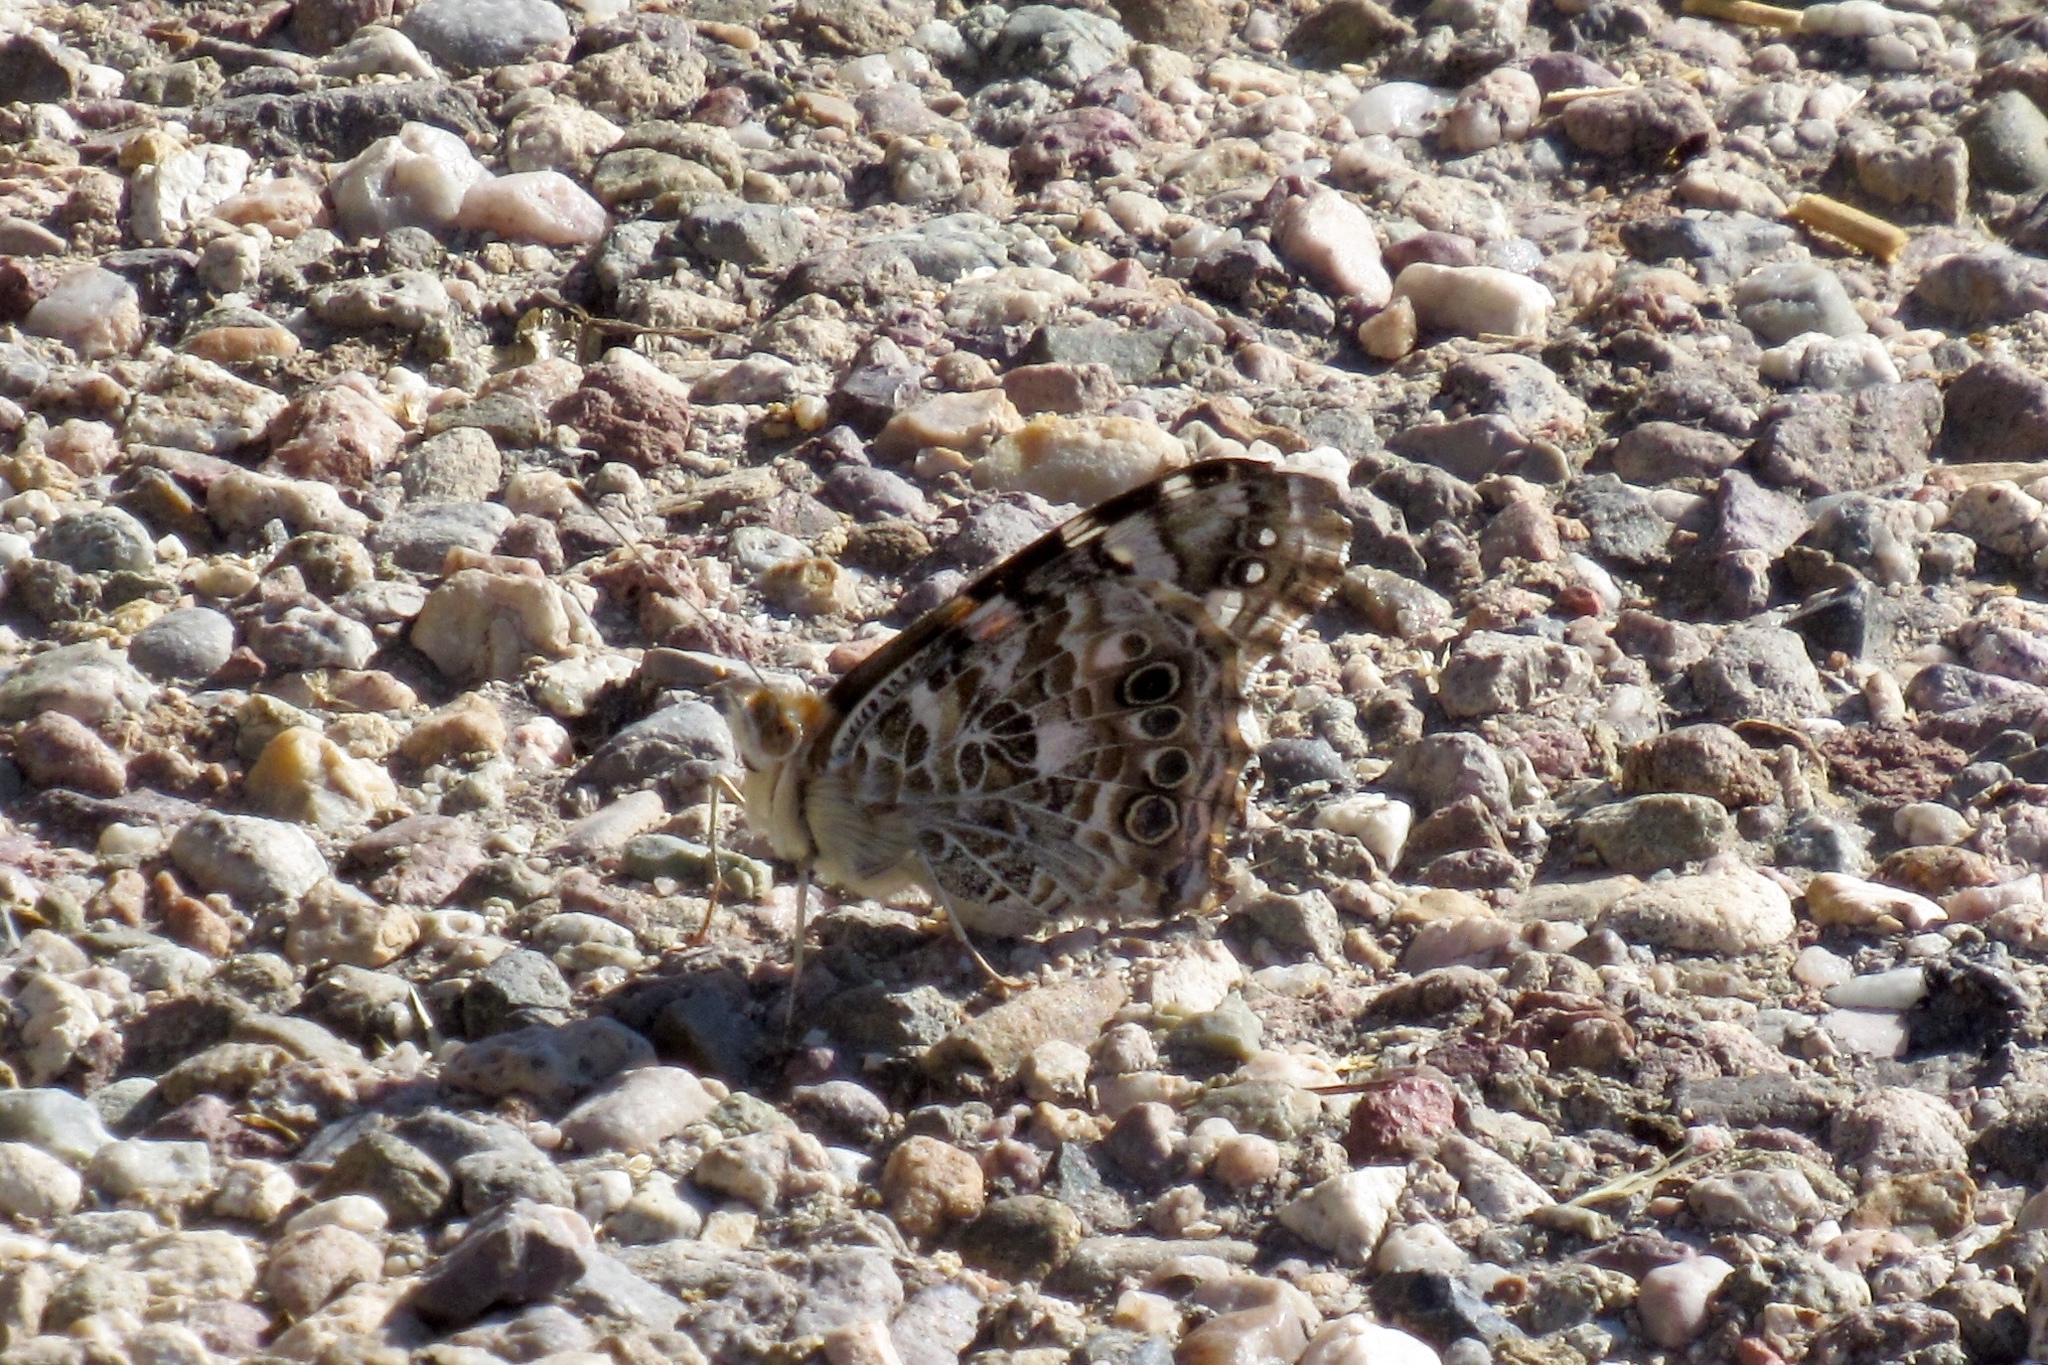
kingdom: Animalia
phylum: Arthropoda
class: Insecta
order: Lepidoptera
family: Nymphalidae
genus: Vanessa
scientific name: Vanessa cardui
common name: Painted lady
